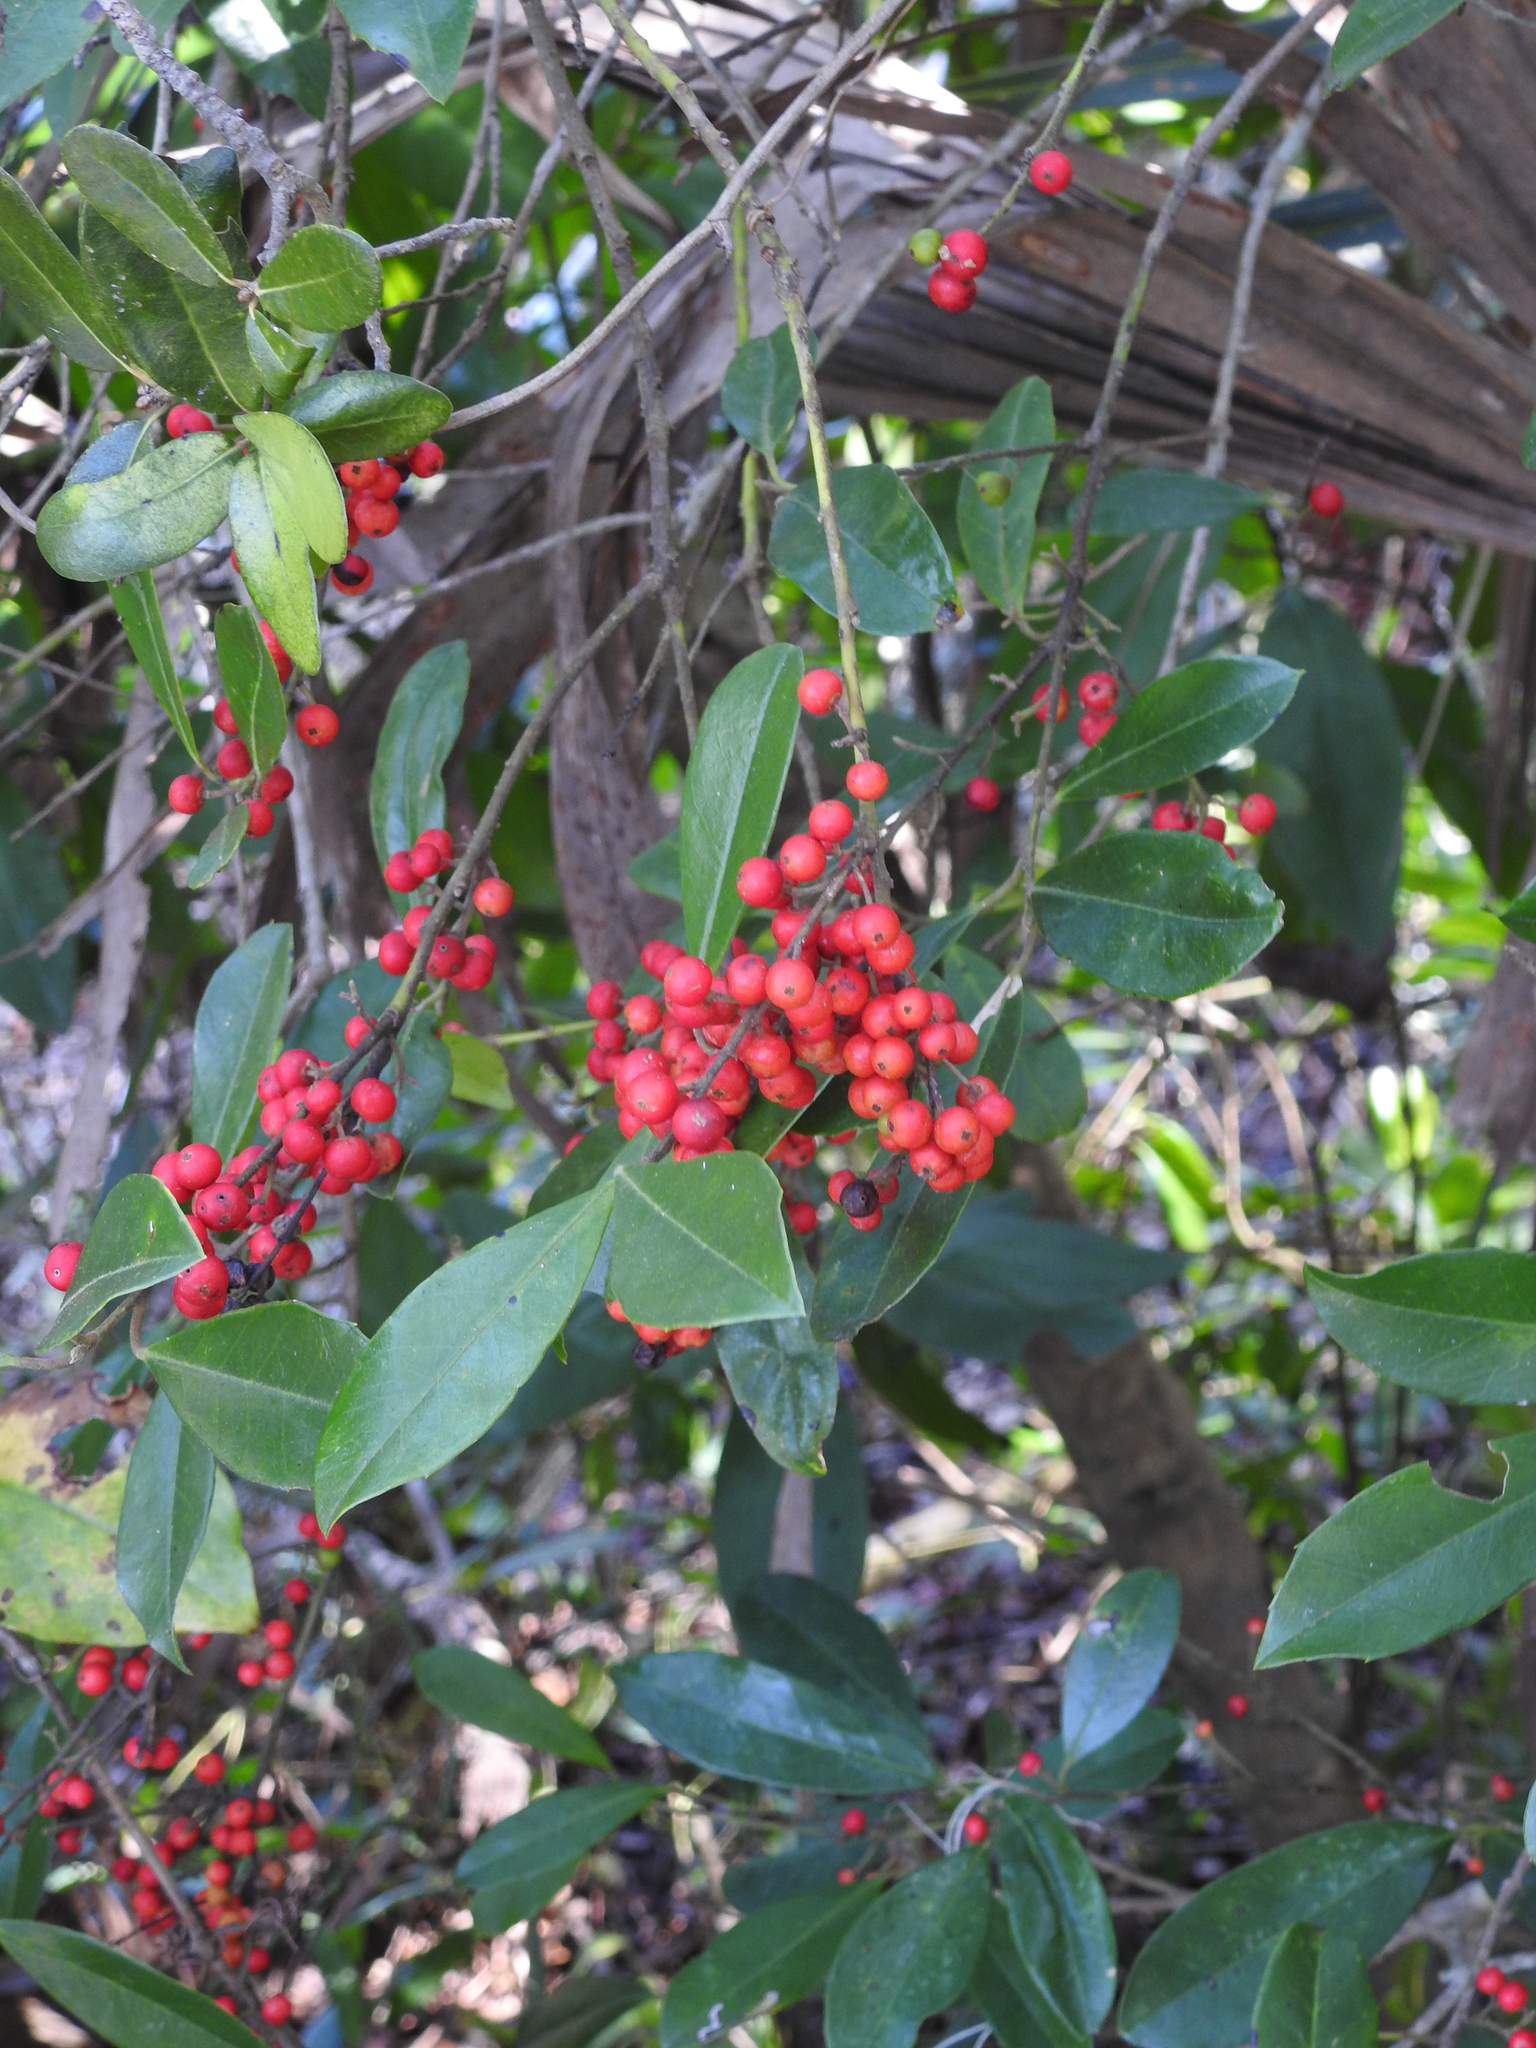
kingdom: Plantae
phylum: Tracheophyta
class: Magnoliopsida
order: Aquifoliales
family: Aquifoliaceae
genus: Ilex
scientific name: Ilex cassine
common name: Dahoon
